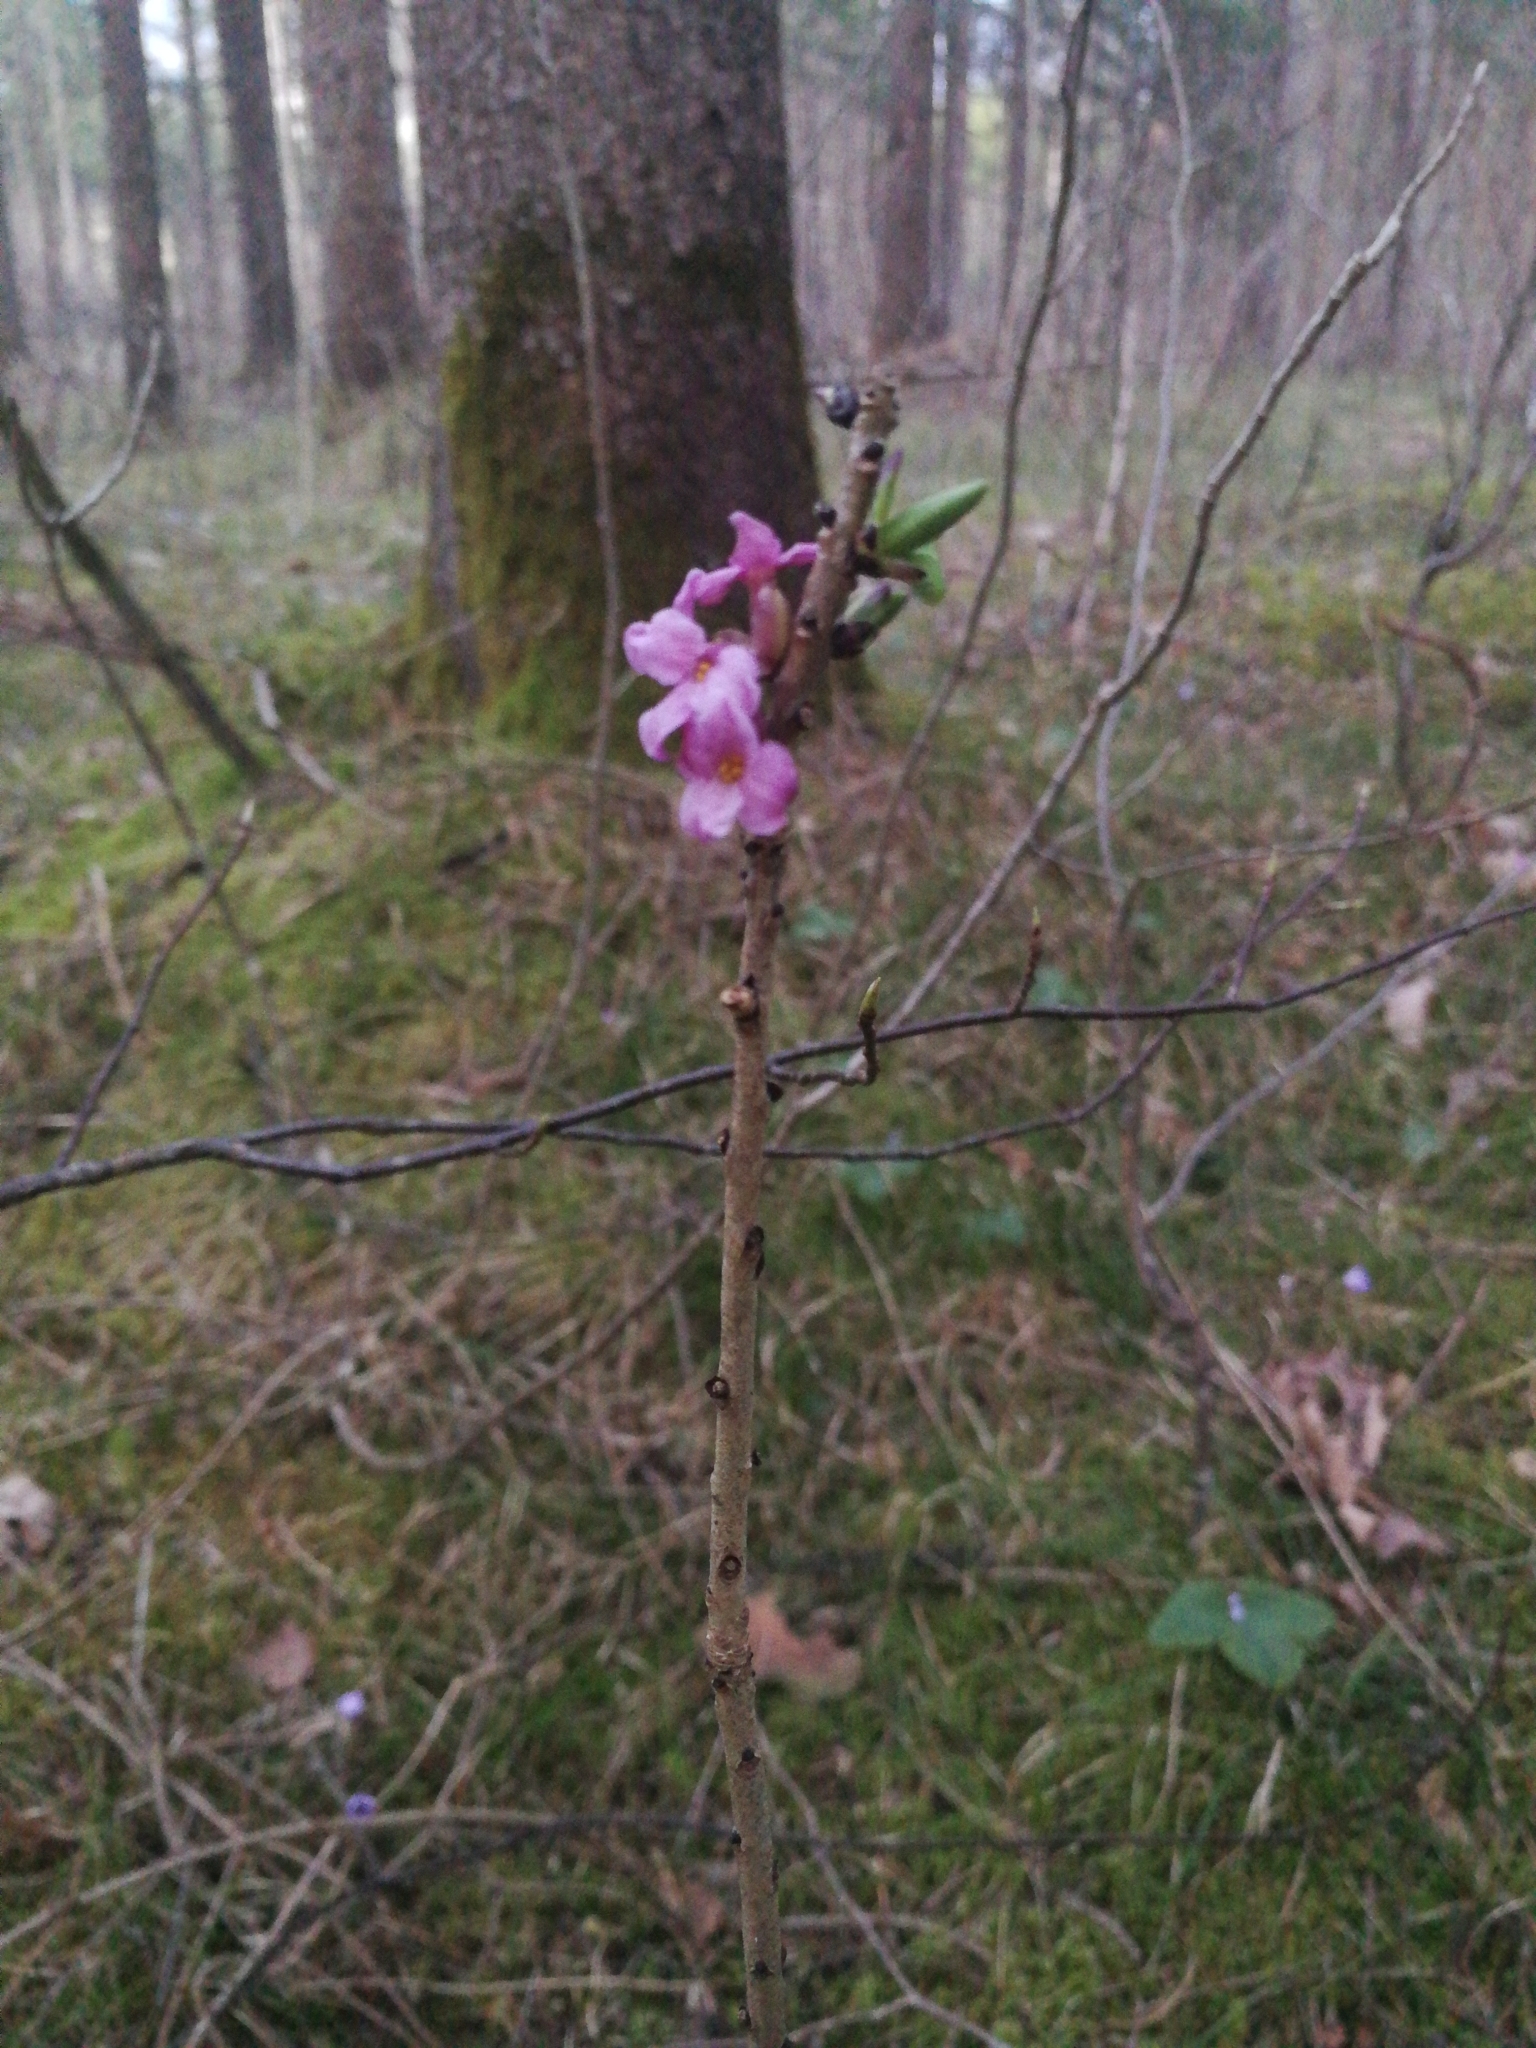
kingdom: Plantae
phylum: Tracheophyta
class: Magnoliopsida
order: Malvales
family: Thymelaeaceae
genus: Daphne
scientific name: Daphne mezereum
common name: Mezereon
